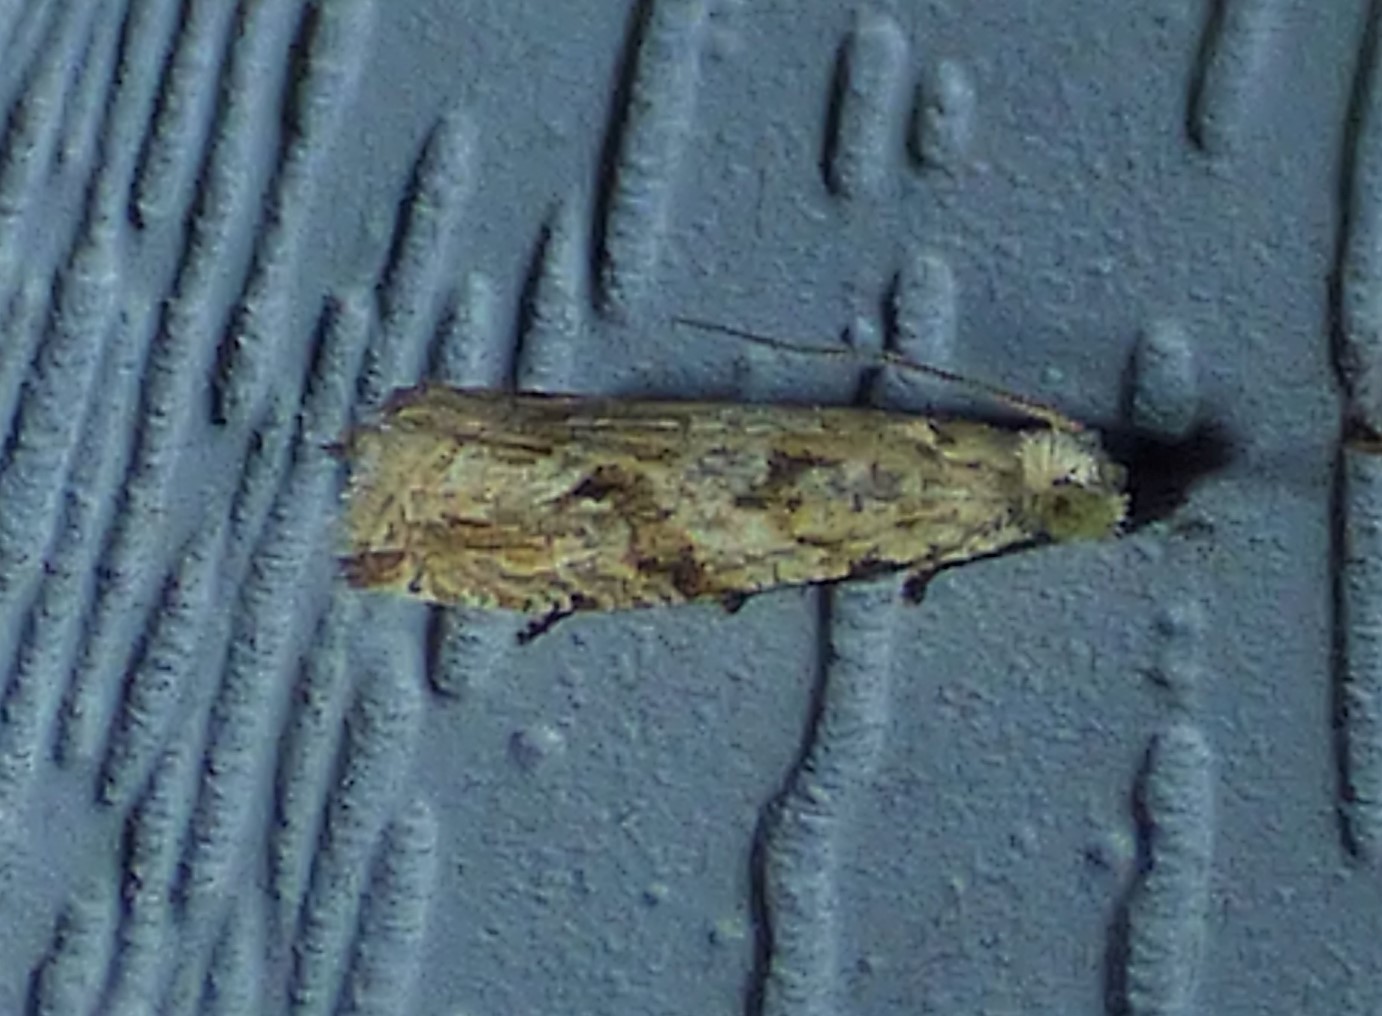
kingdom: Animalia
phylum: Arthropoda
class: Insecta
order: Lepidoptera
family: Tortricidae
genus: Bactra
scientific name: Bactra furfurana
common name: Mottled marble
